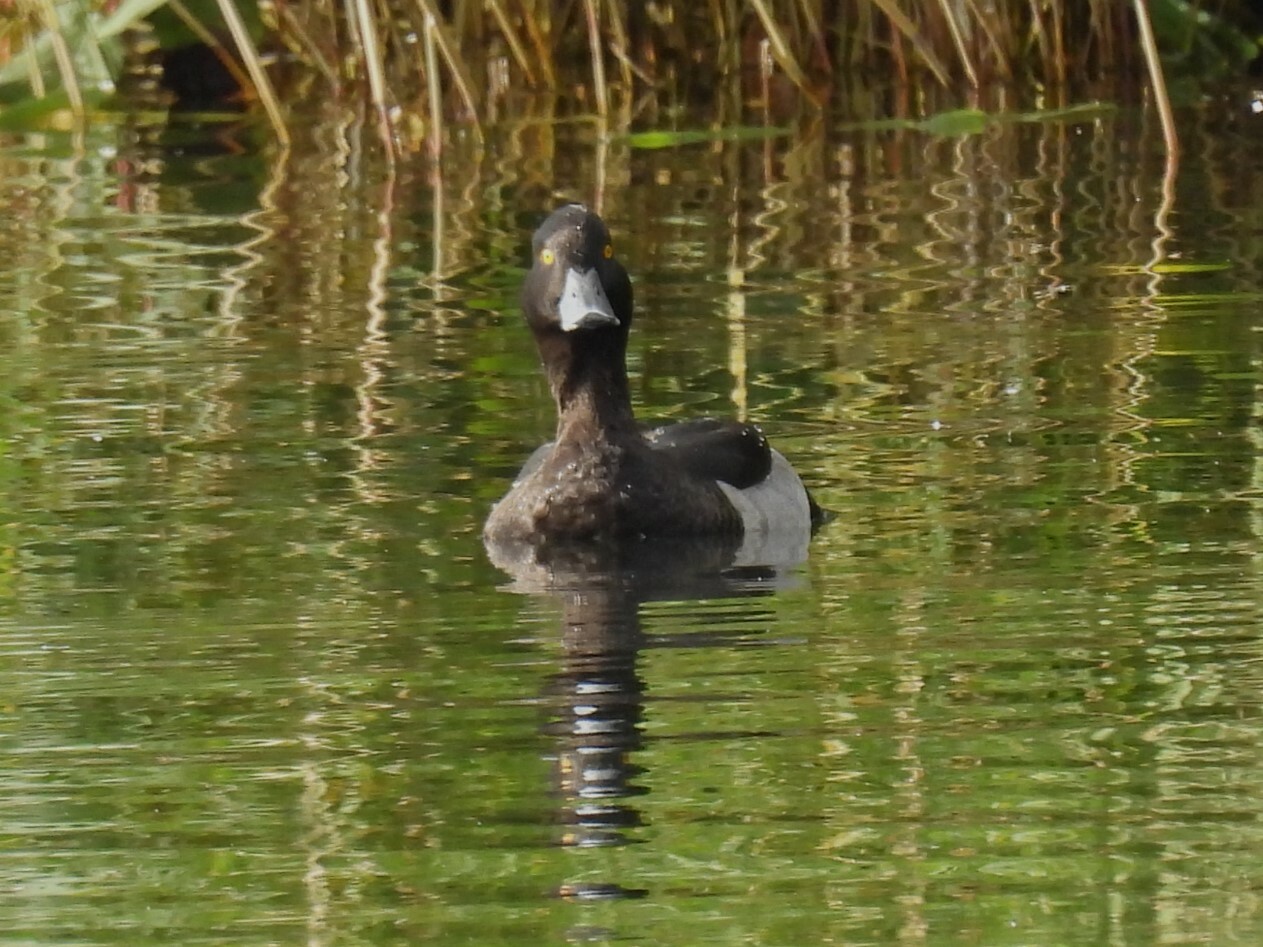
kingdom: Animalia
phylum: Chordata
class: Aves
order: Anseriformes
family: Anatidae
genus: Aythya
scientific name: Aythya fuligula
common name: Tufted duck
